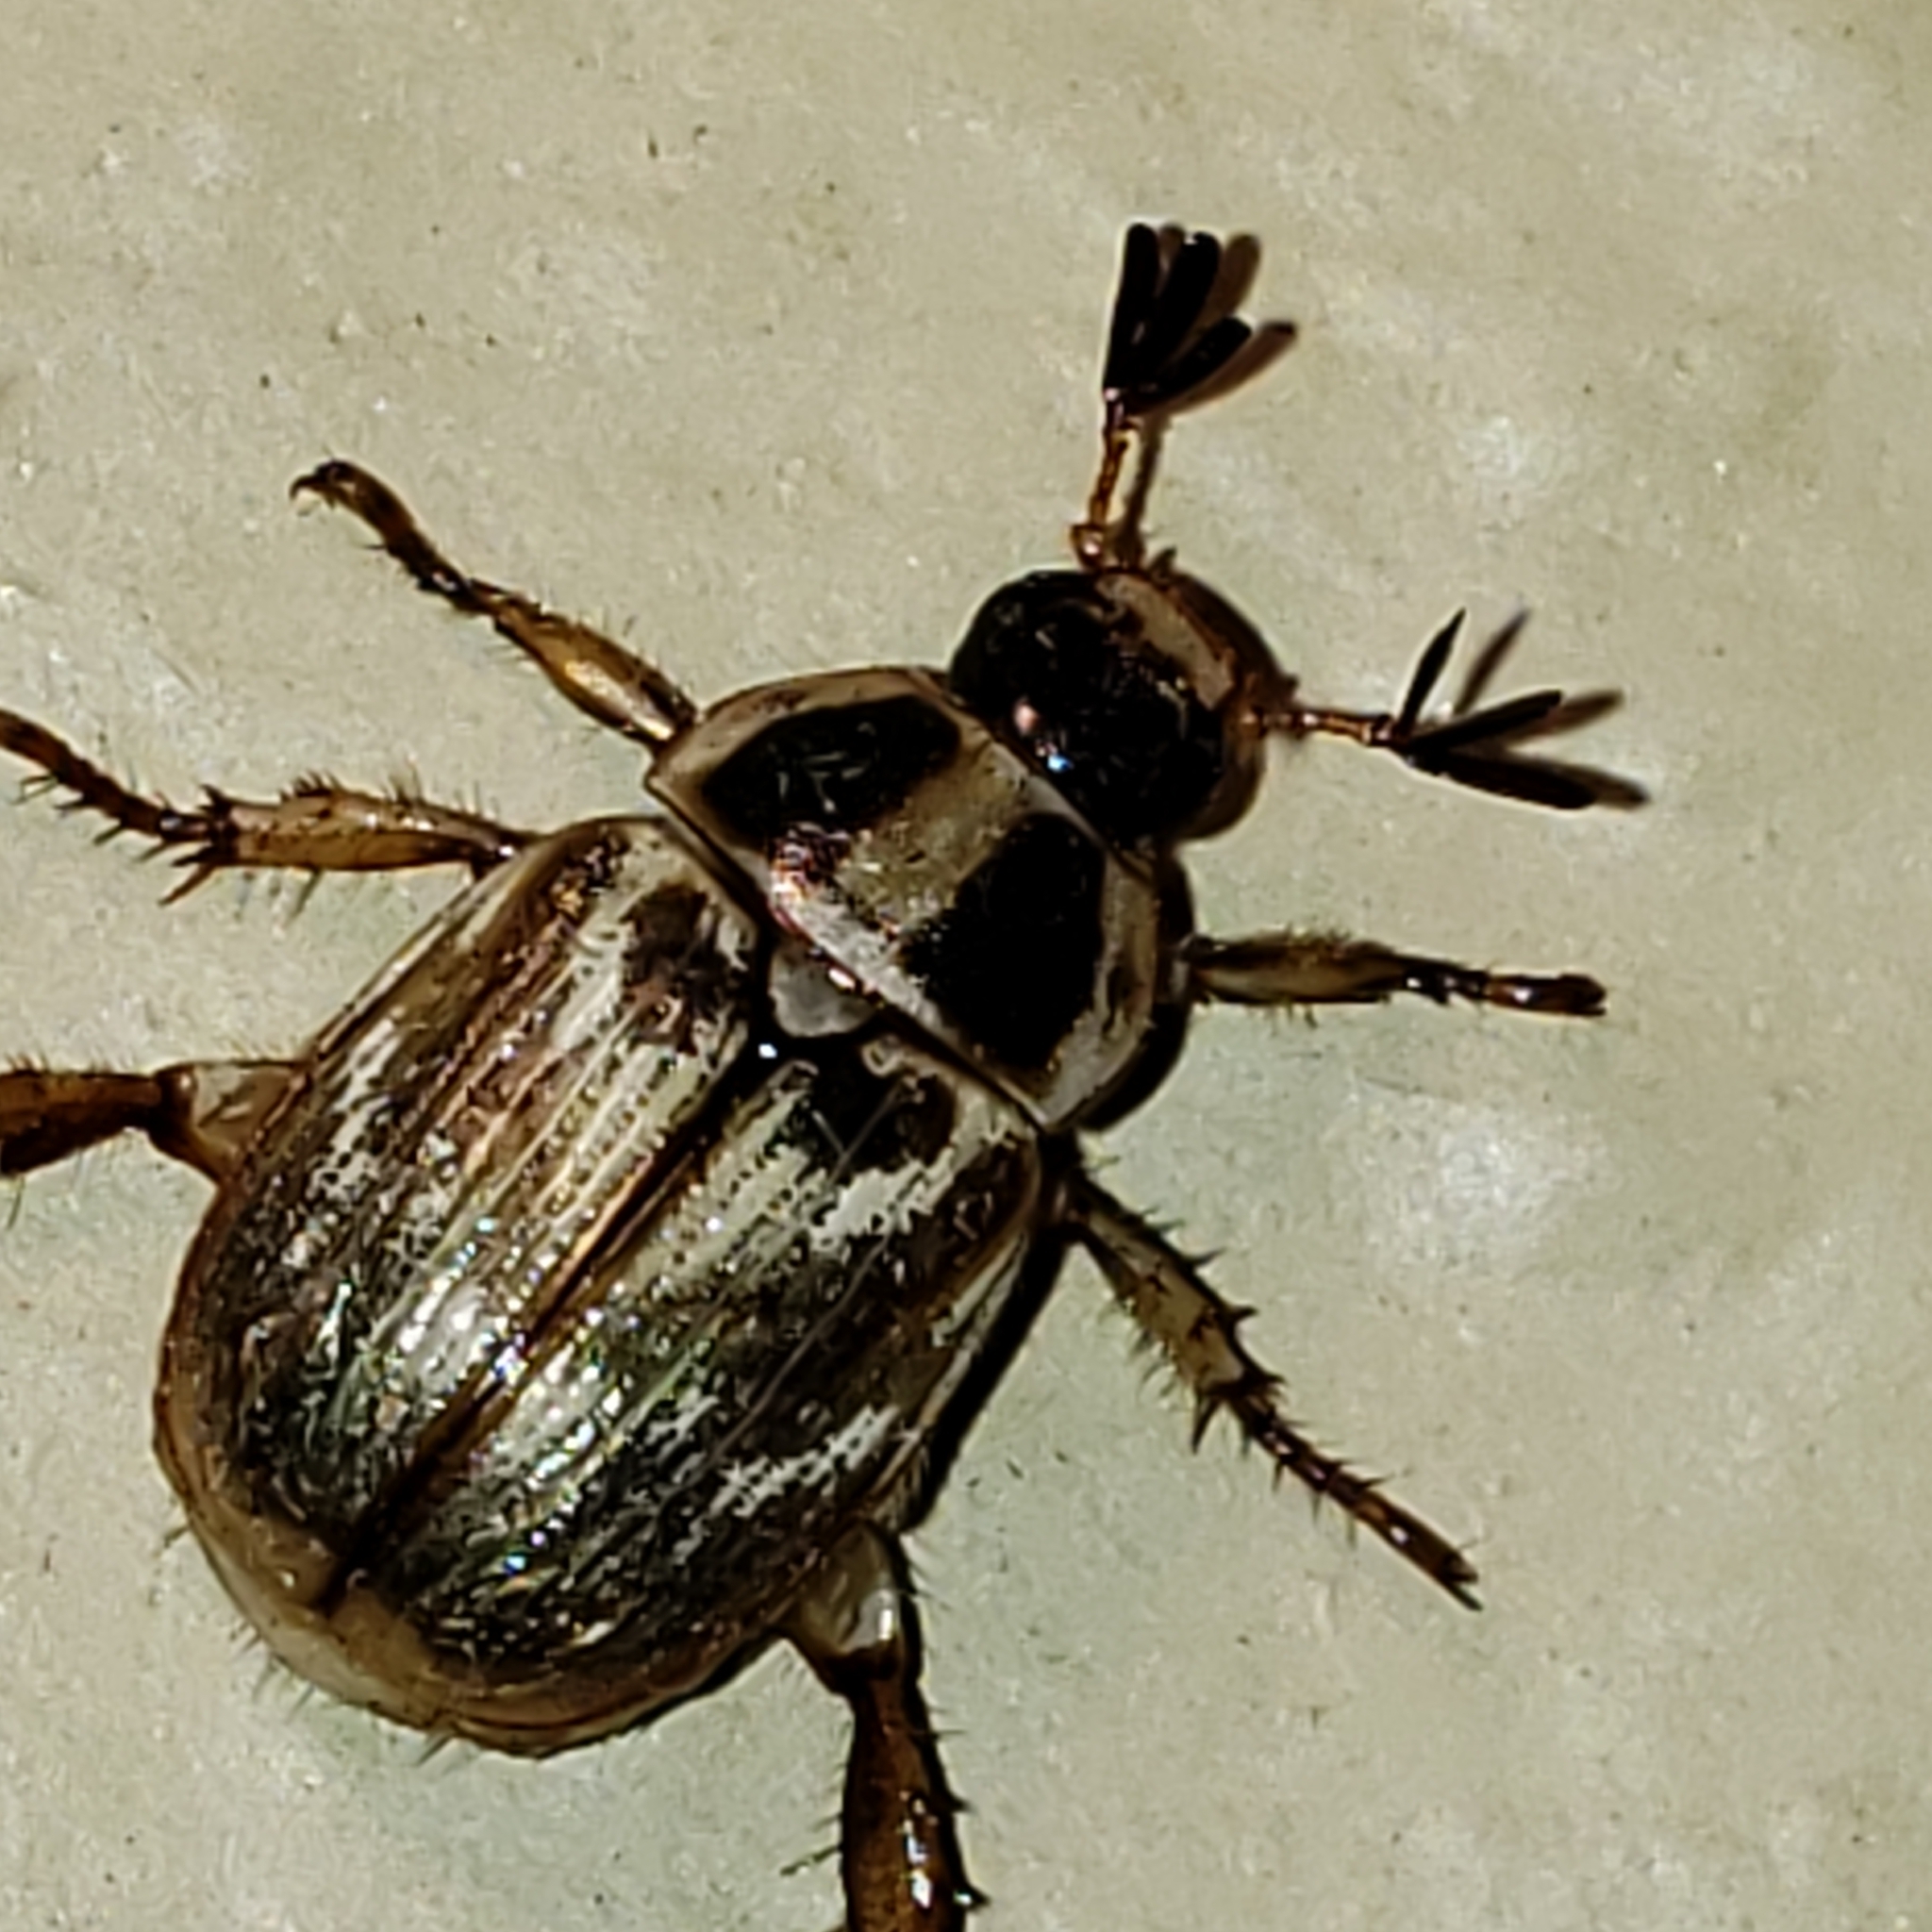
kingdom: Animalia
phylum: Arthropoda
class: Insecta
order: Coleoptera
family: Scarabaeidae
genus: Exomala
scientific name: Exomala orientalis
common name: Oriental beetle
